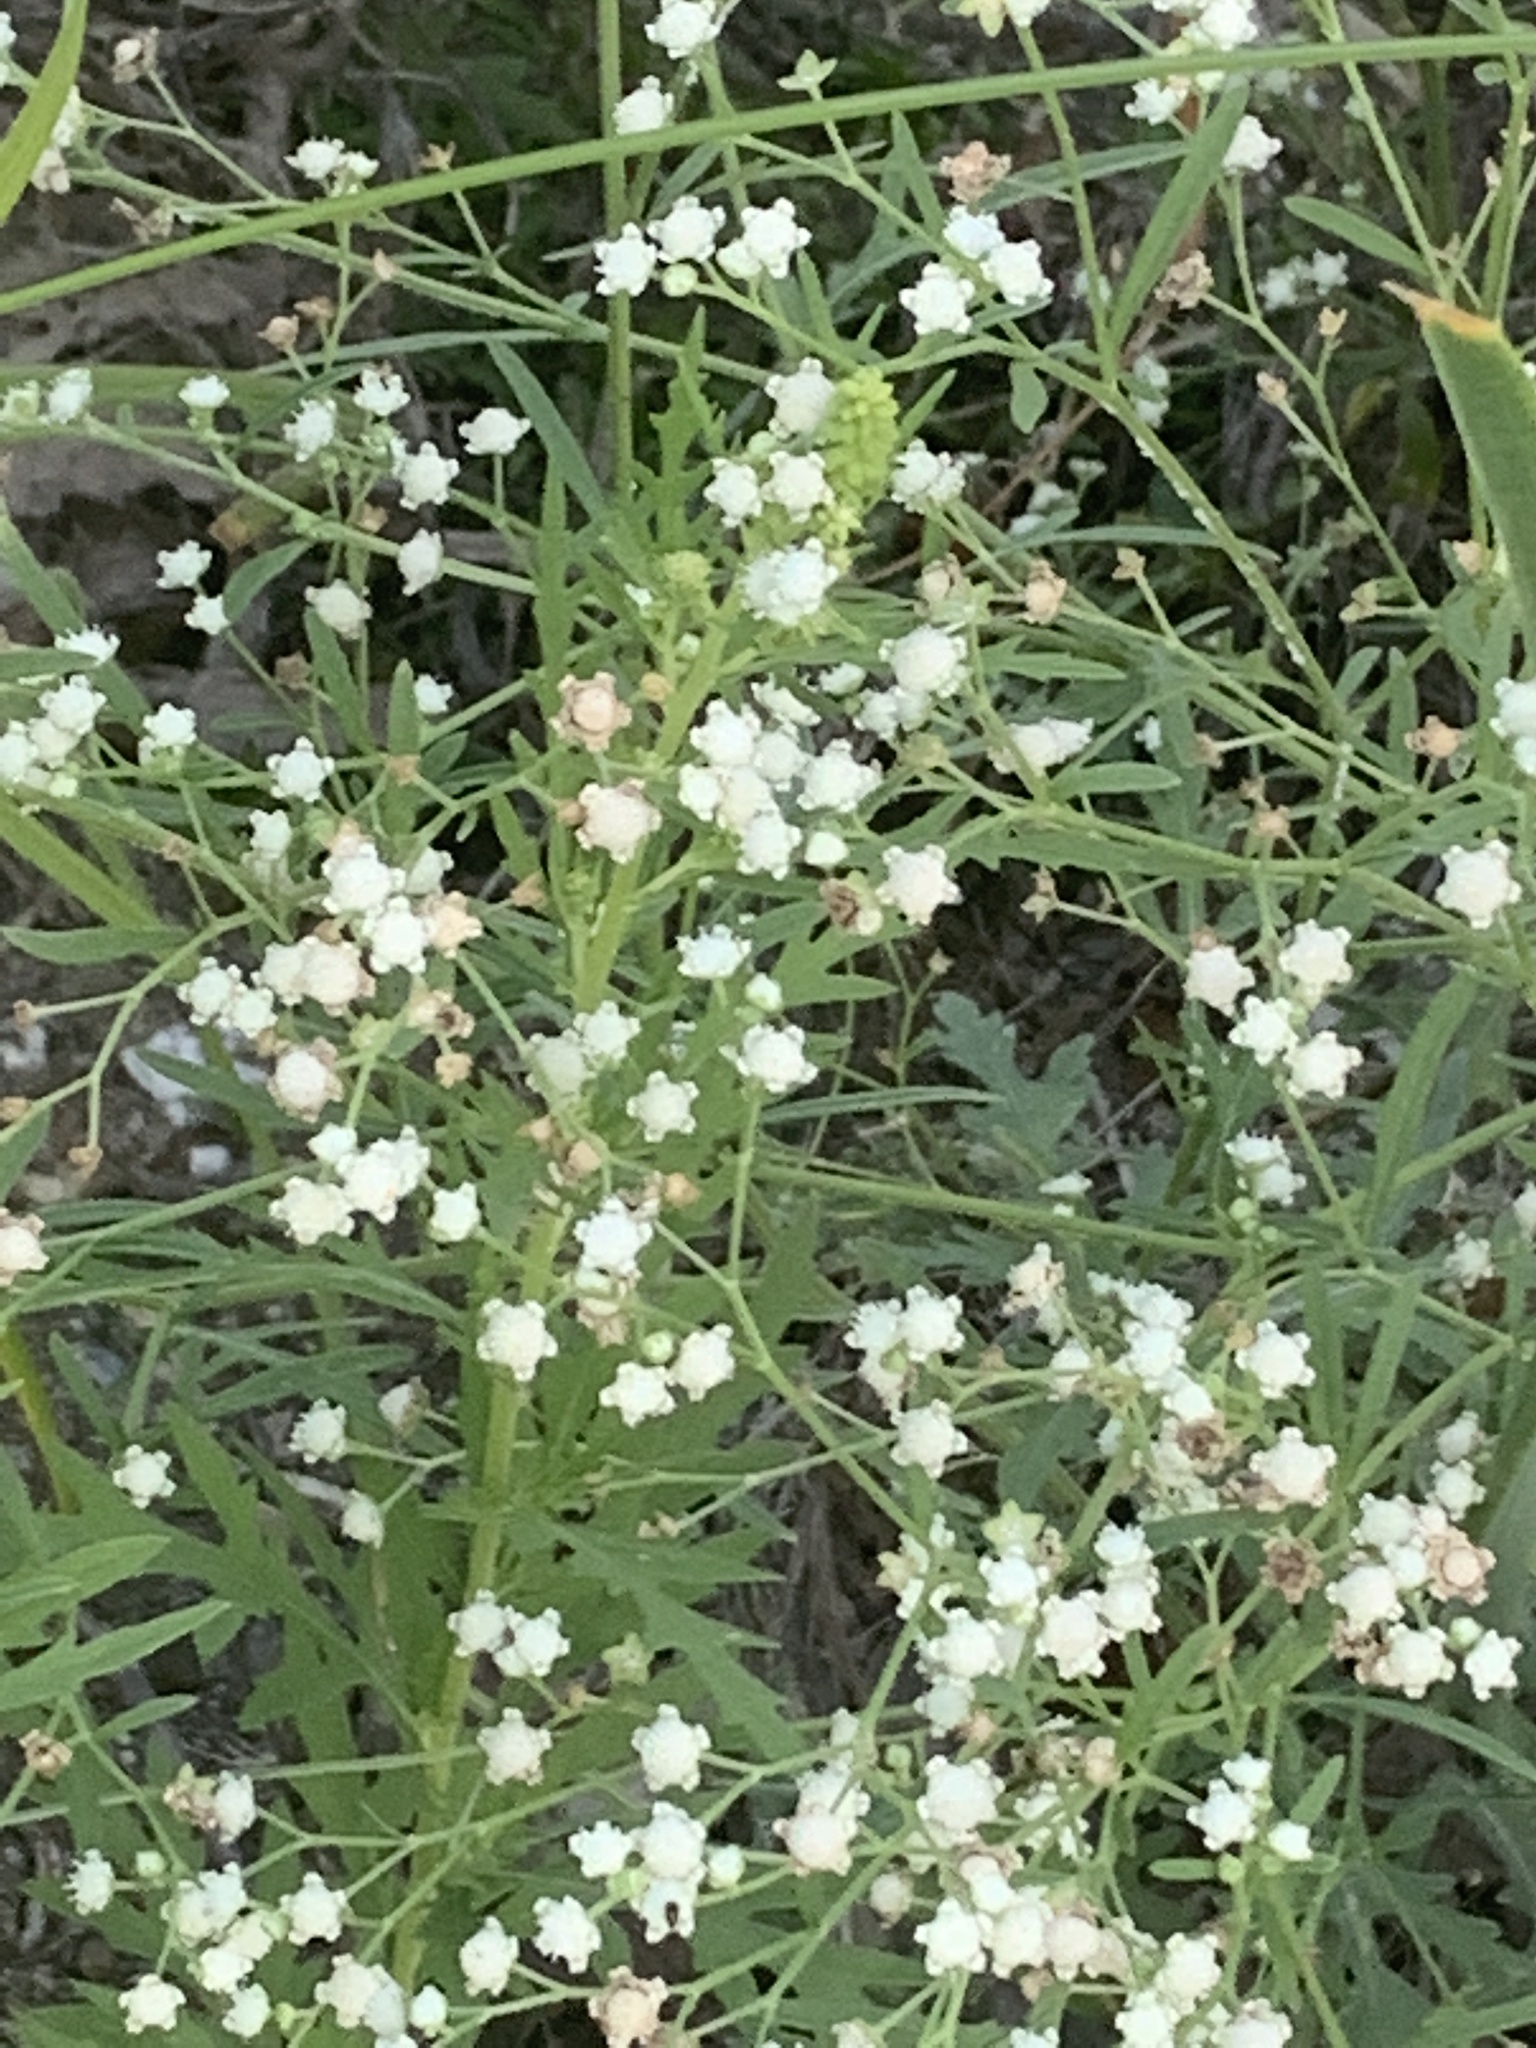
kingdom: Plantae
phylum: Tracheophyta
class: Magnoliopsida
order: Asterales
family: Asteraceae
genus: Parthenium
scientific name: Parthenium hysterophorus
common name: Santa maria feverfew
